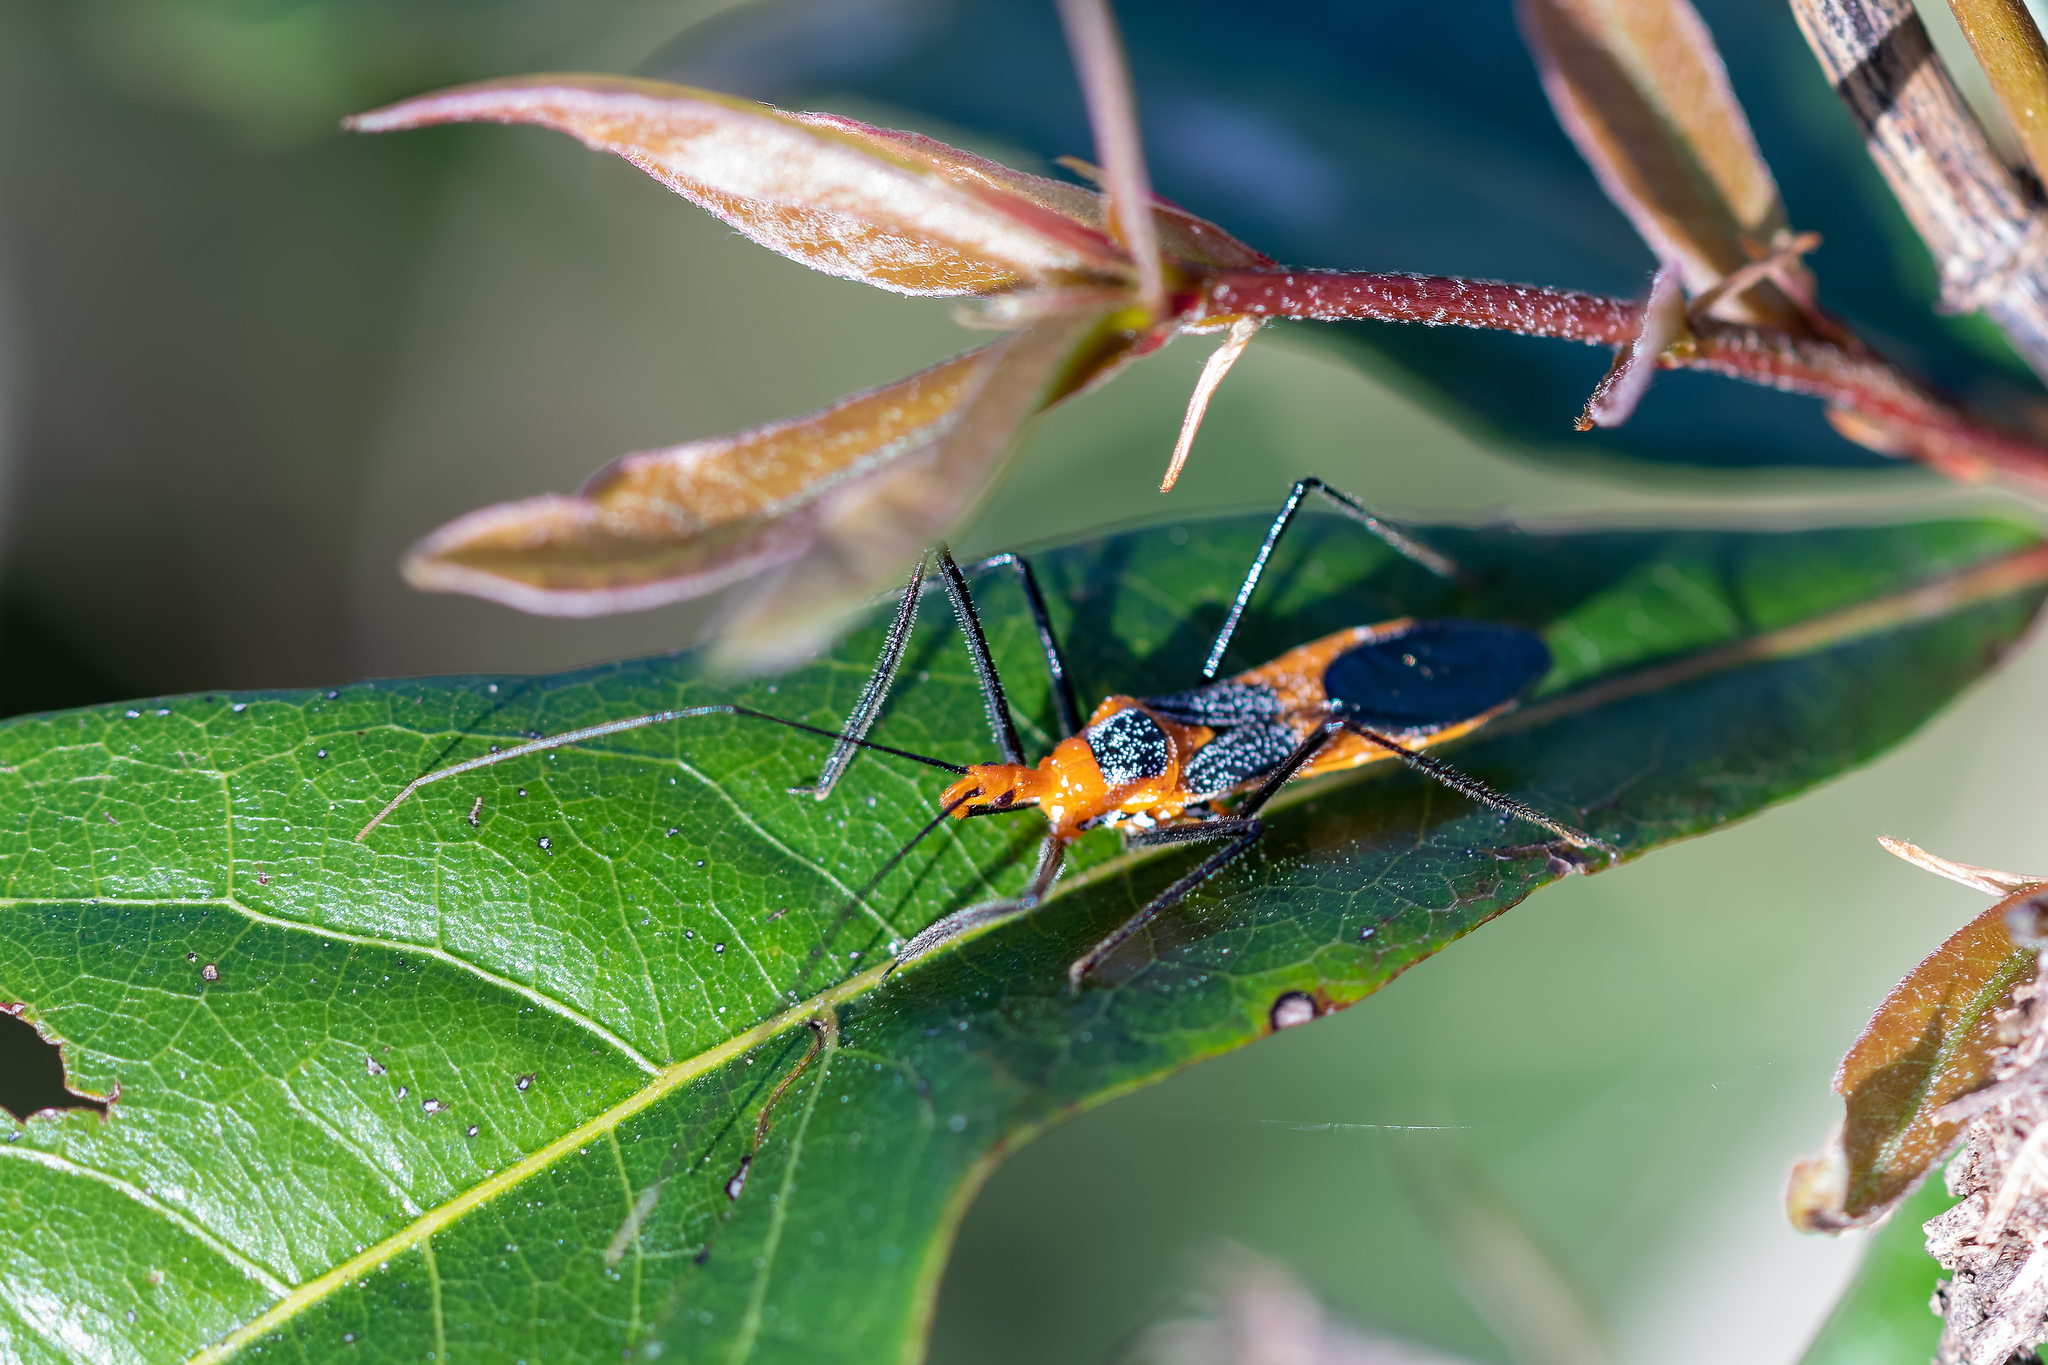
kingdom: Animalia
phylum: Arthropoda
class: Insecta
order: Hemiptera
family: Reduviidae
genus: Zelus
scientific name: Zelus longipes
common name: Milkweed assassin bug
